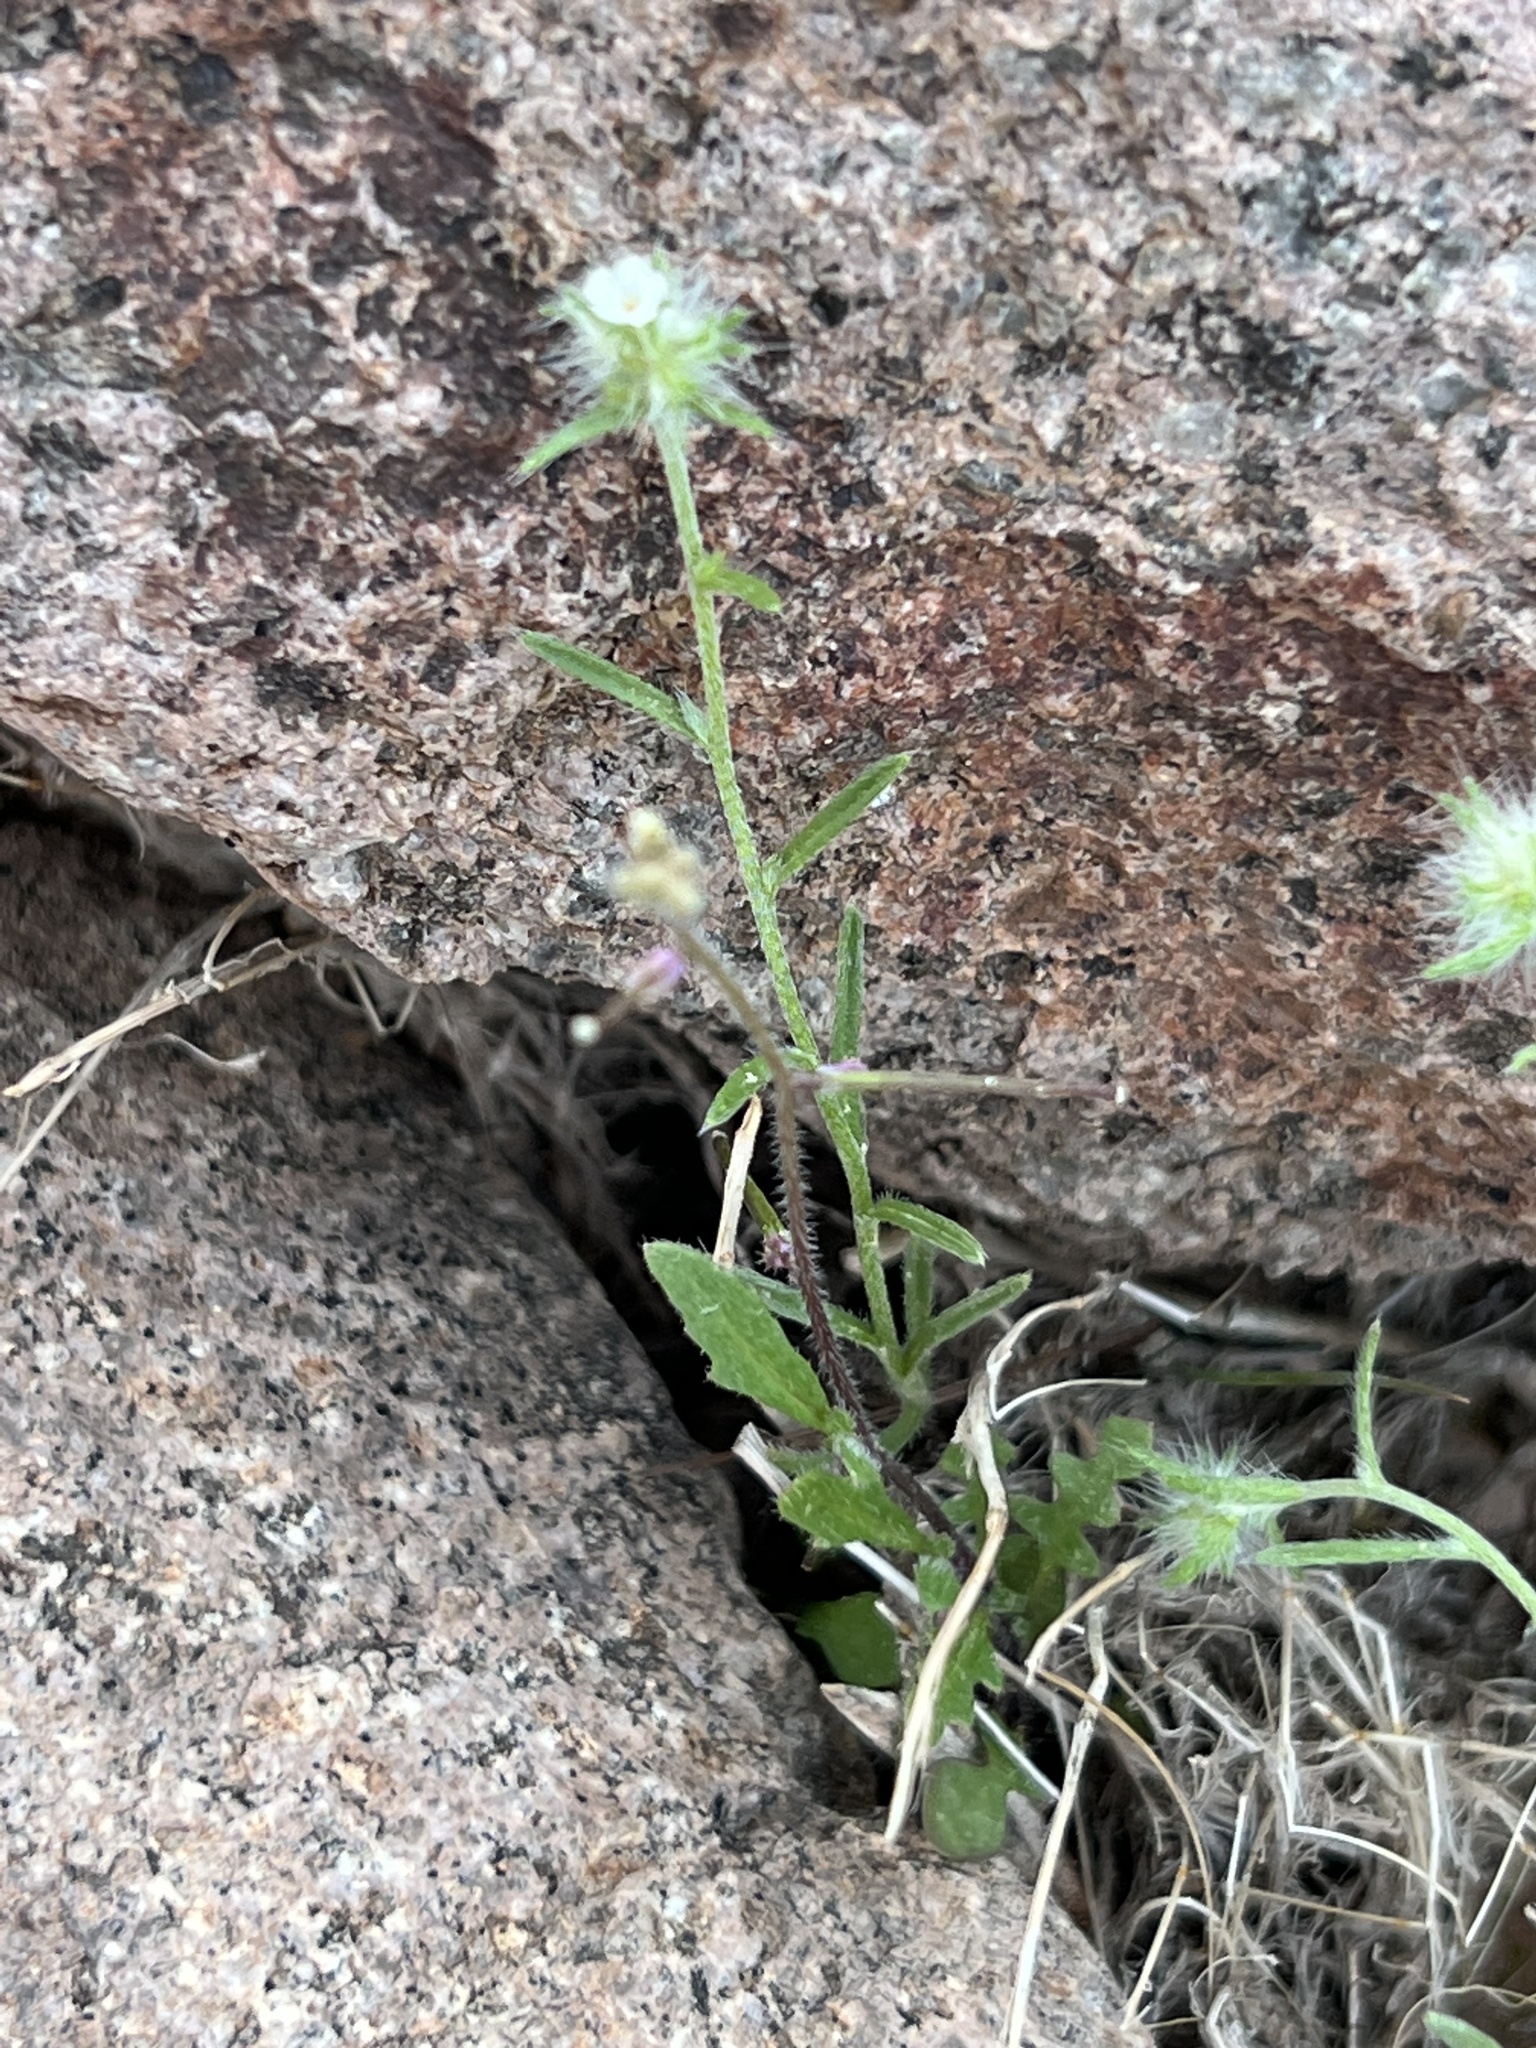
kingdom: Plantae
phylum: Tracheophyta
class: Magnoliopsida
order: Boraginales
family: Boraginaceae
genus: Cryptantha
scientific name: Cryptantha nevadensis
